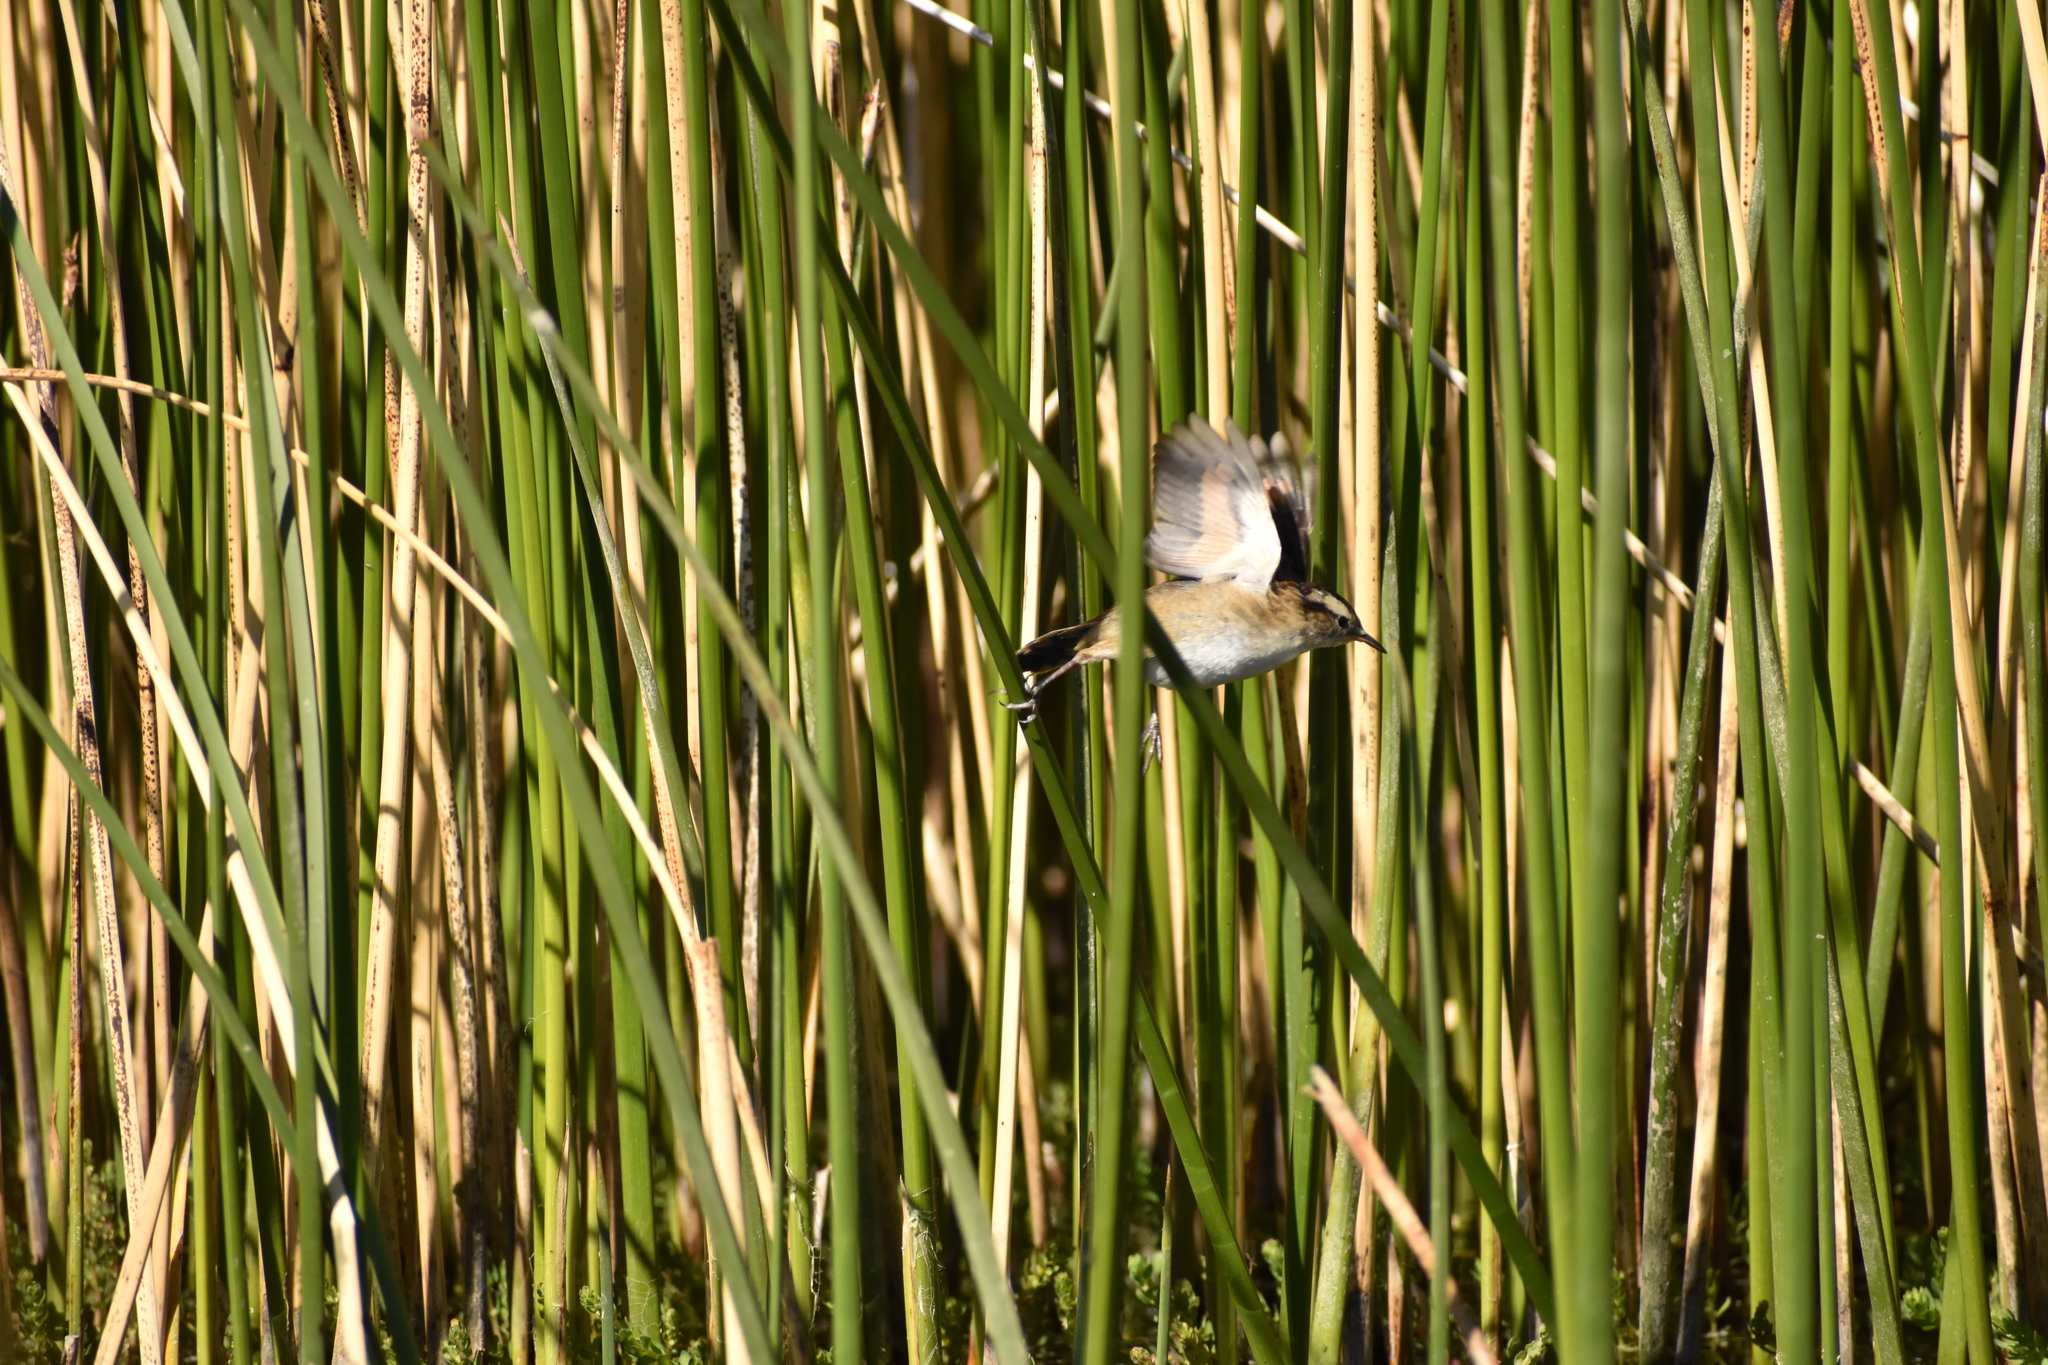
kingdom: Animalia
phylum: Chordata
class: Aves
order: Passeriformes
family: Furnariidae
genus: Phleocryptes
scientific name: Phleocryptes melanops
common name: Wren-like rushbird
